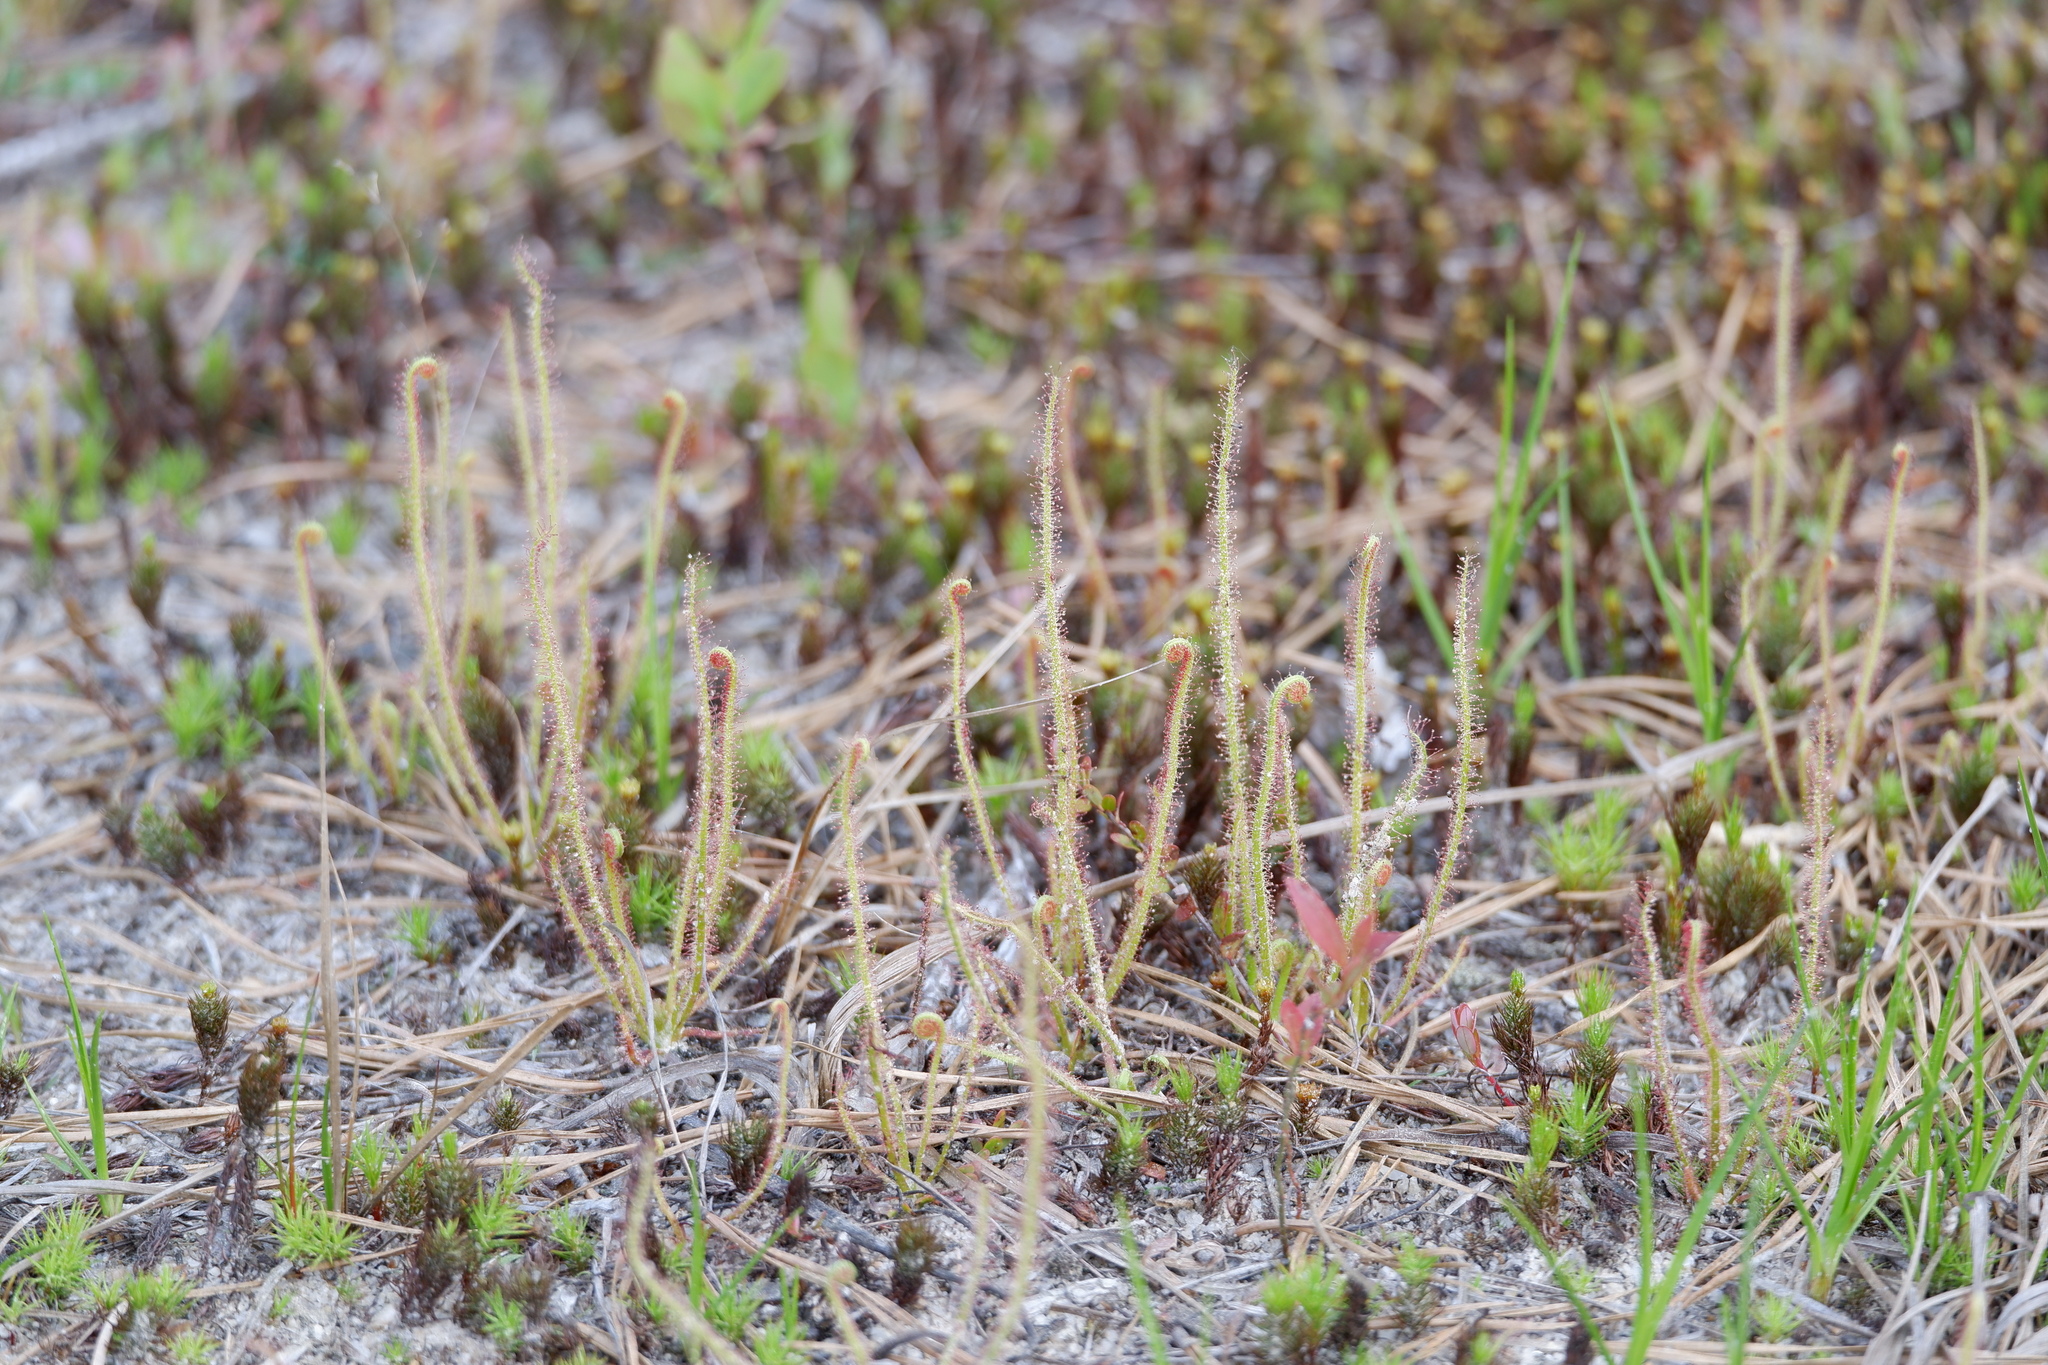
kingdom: Plantae
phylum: Tracheophyta
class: Magnoliopsida
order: Caryophyllales
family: Droseraceae
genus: Drosera
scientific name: Drosera filiformis
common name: Dew-thread
